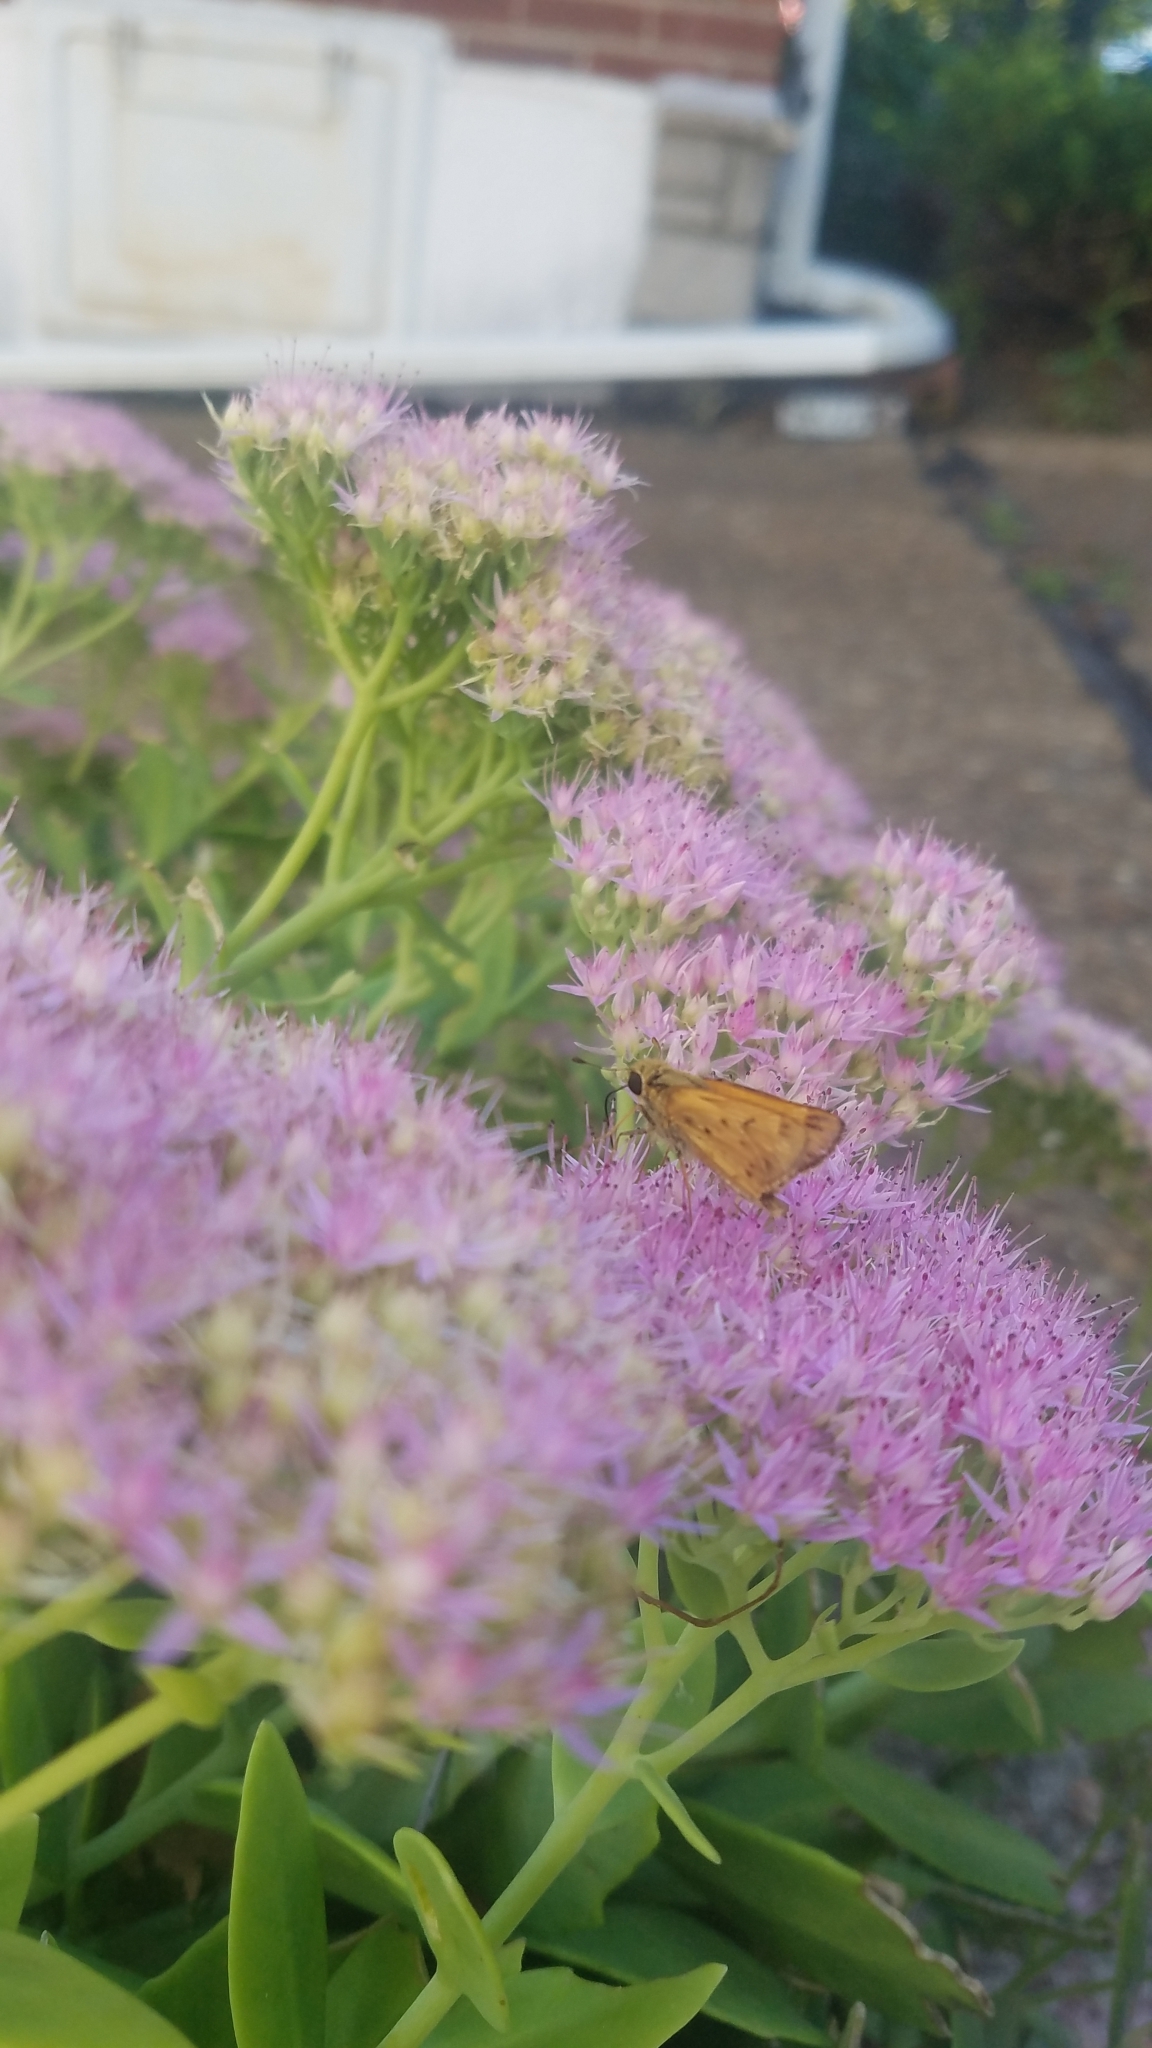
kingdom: Animalia
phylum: Arthropoda
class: Insecta
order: Lepidoptera
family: Hesperiidae
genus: Hylephila
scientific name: Hylephila phyleus
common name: Fiery skipper
